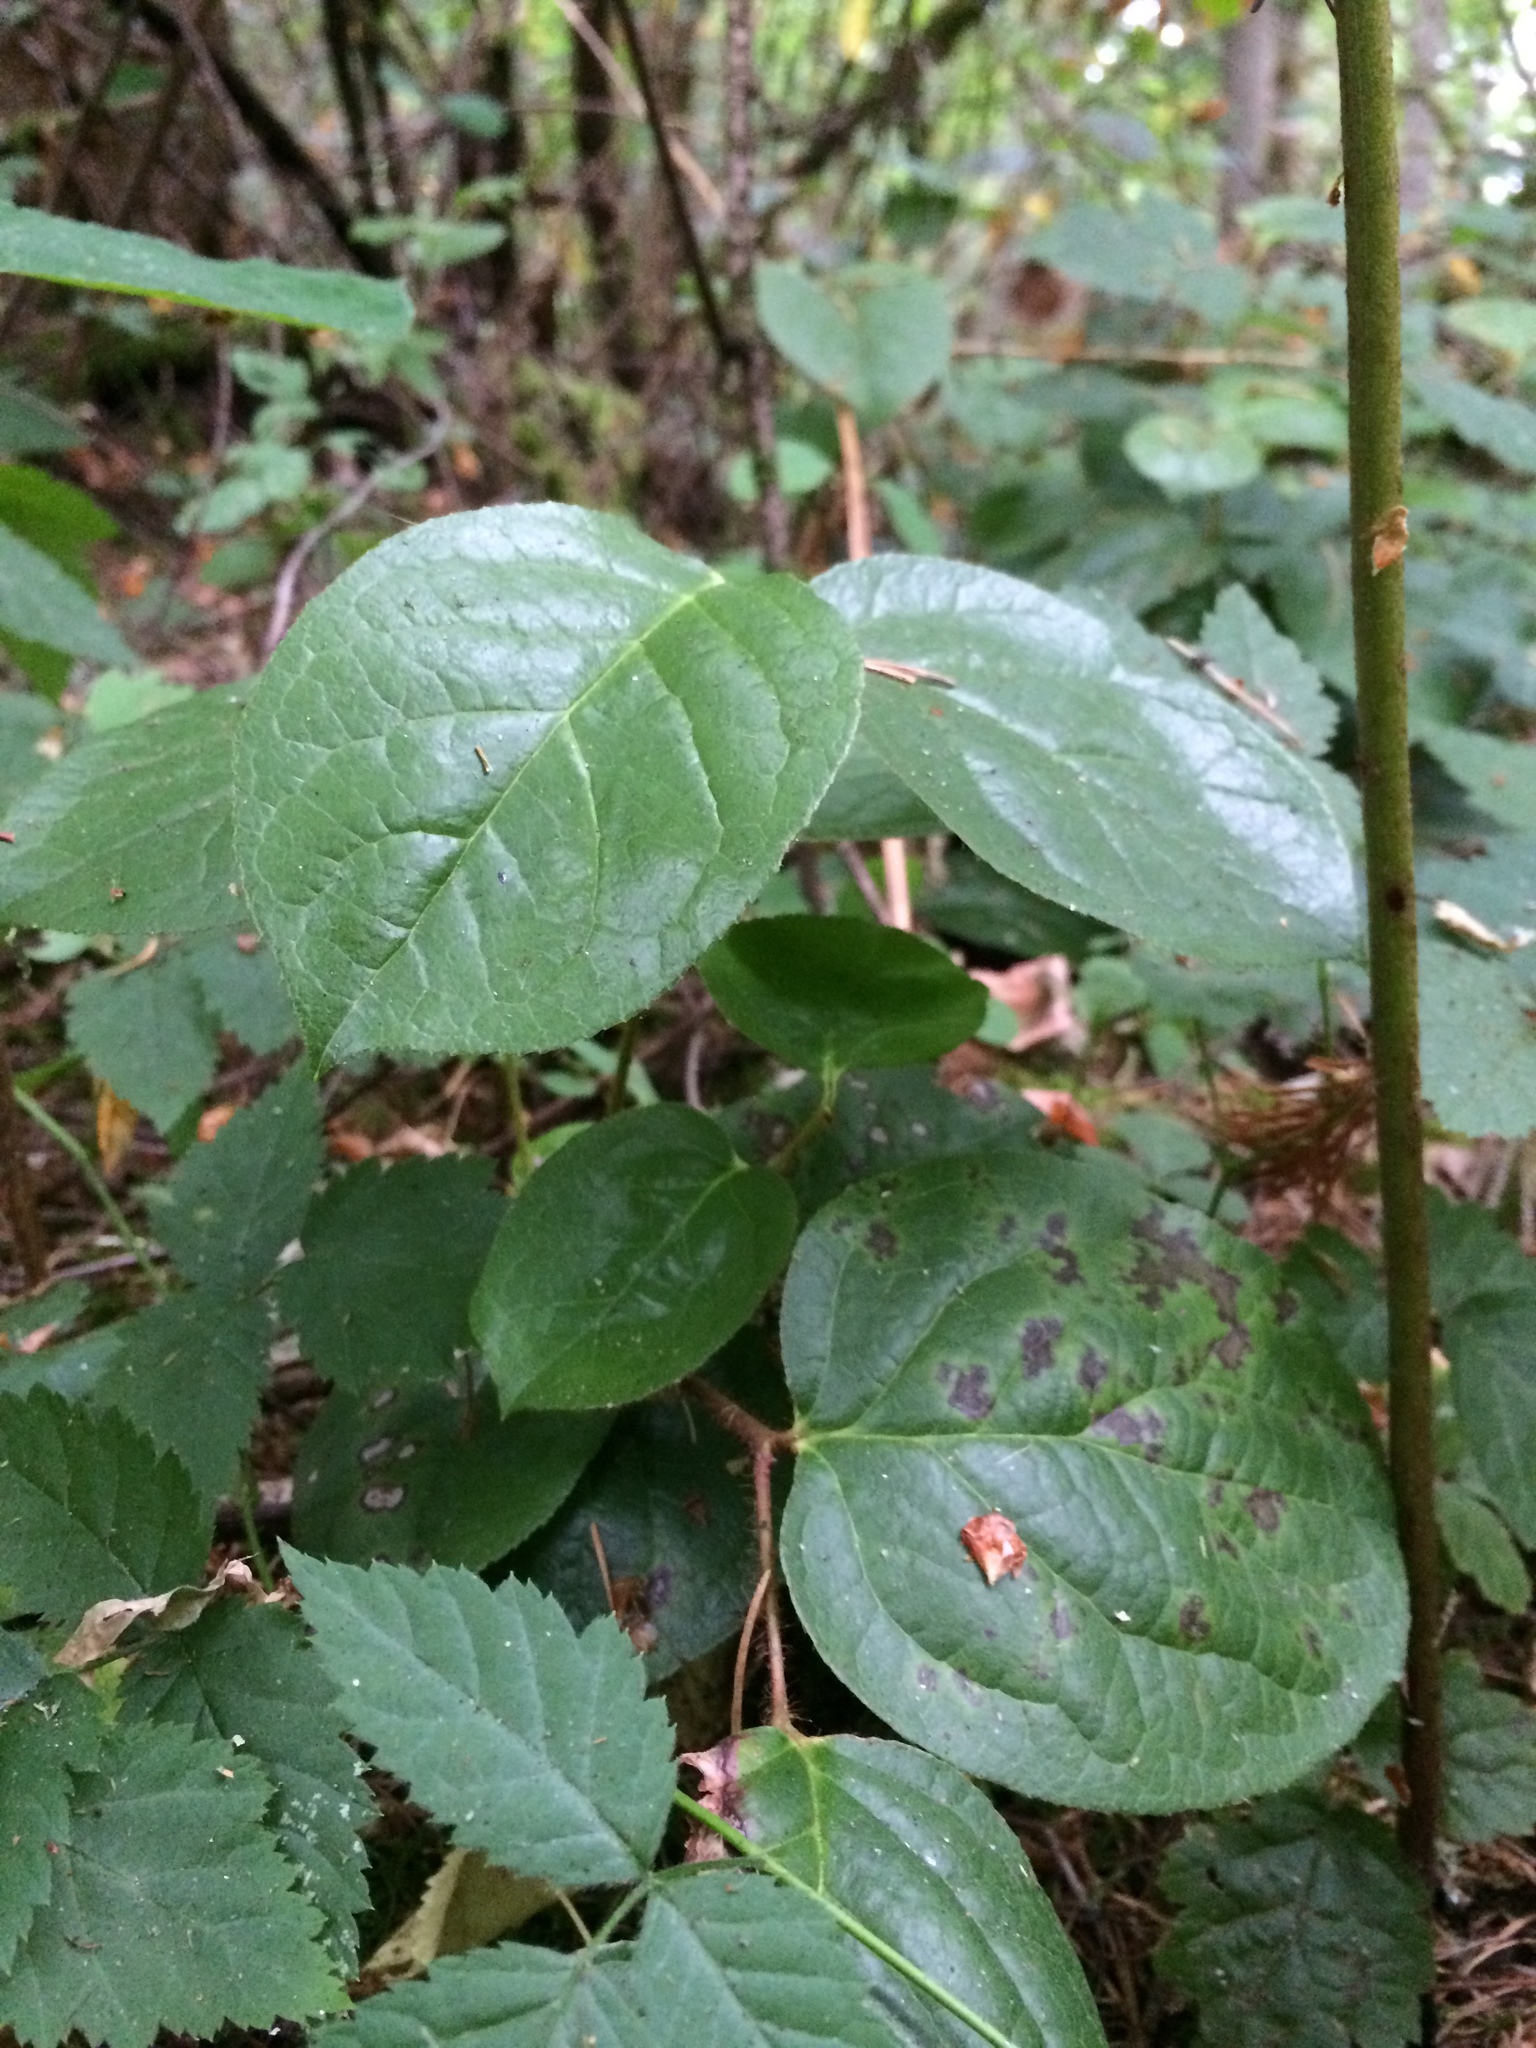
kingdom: Plantae
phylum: Tracheophyta
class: Magnoliopsida
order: Ericales
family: Ericaceae
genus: Gaultheria
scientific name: Gaultheria shallon
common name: Shallon
